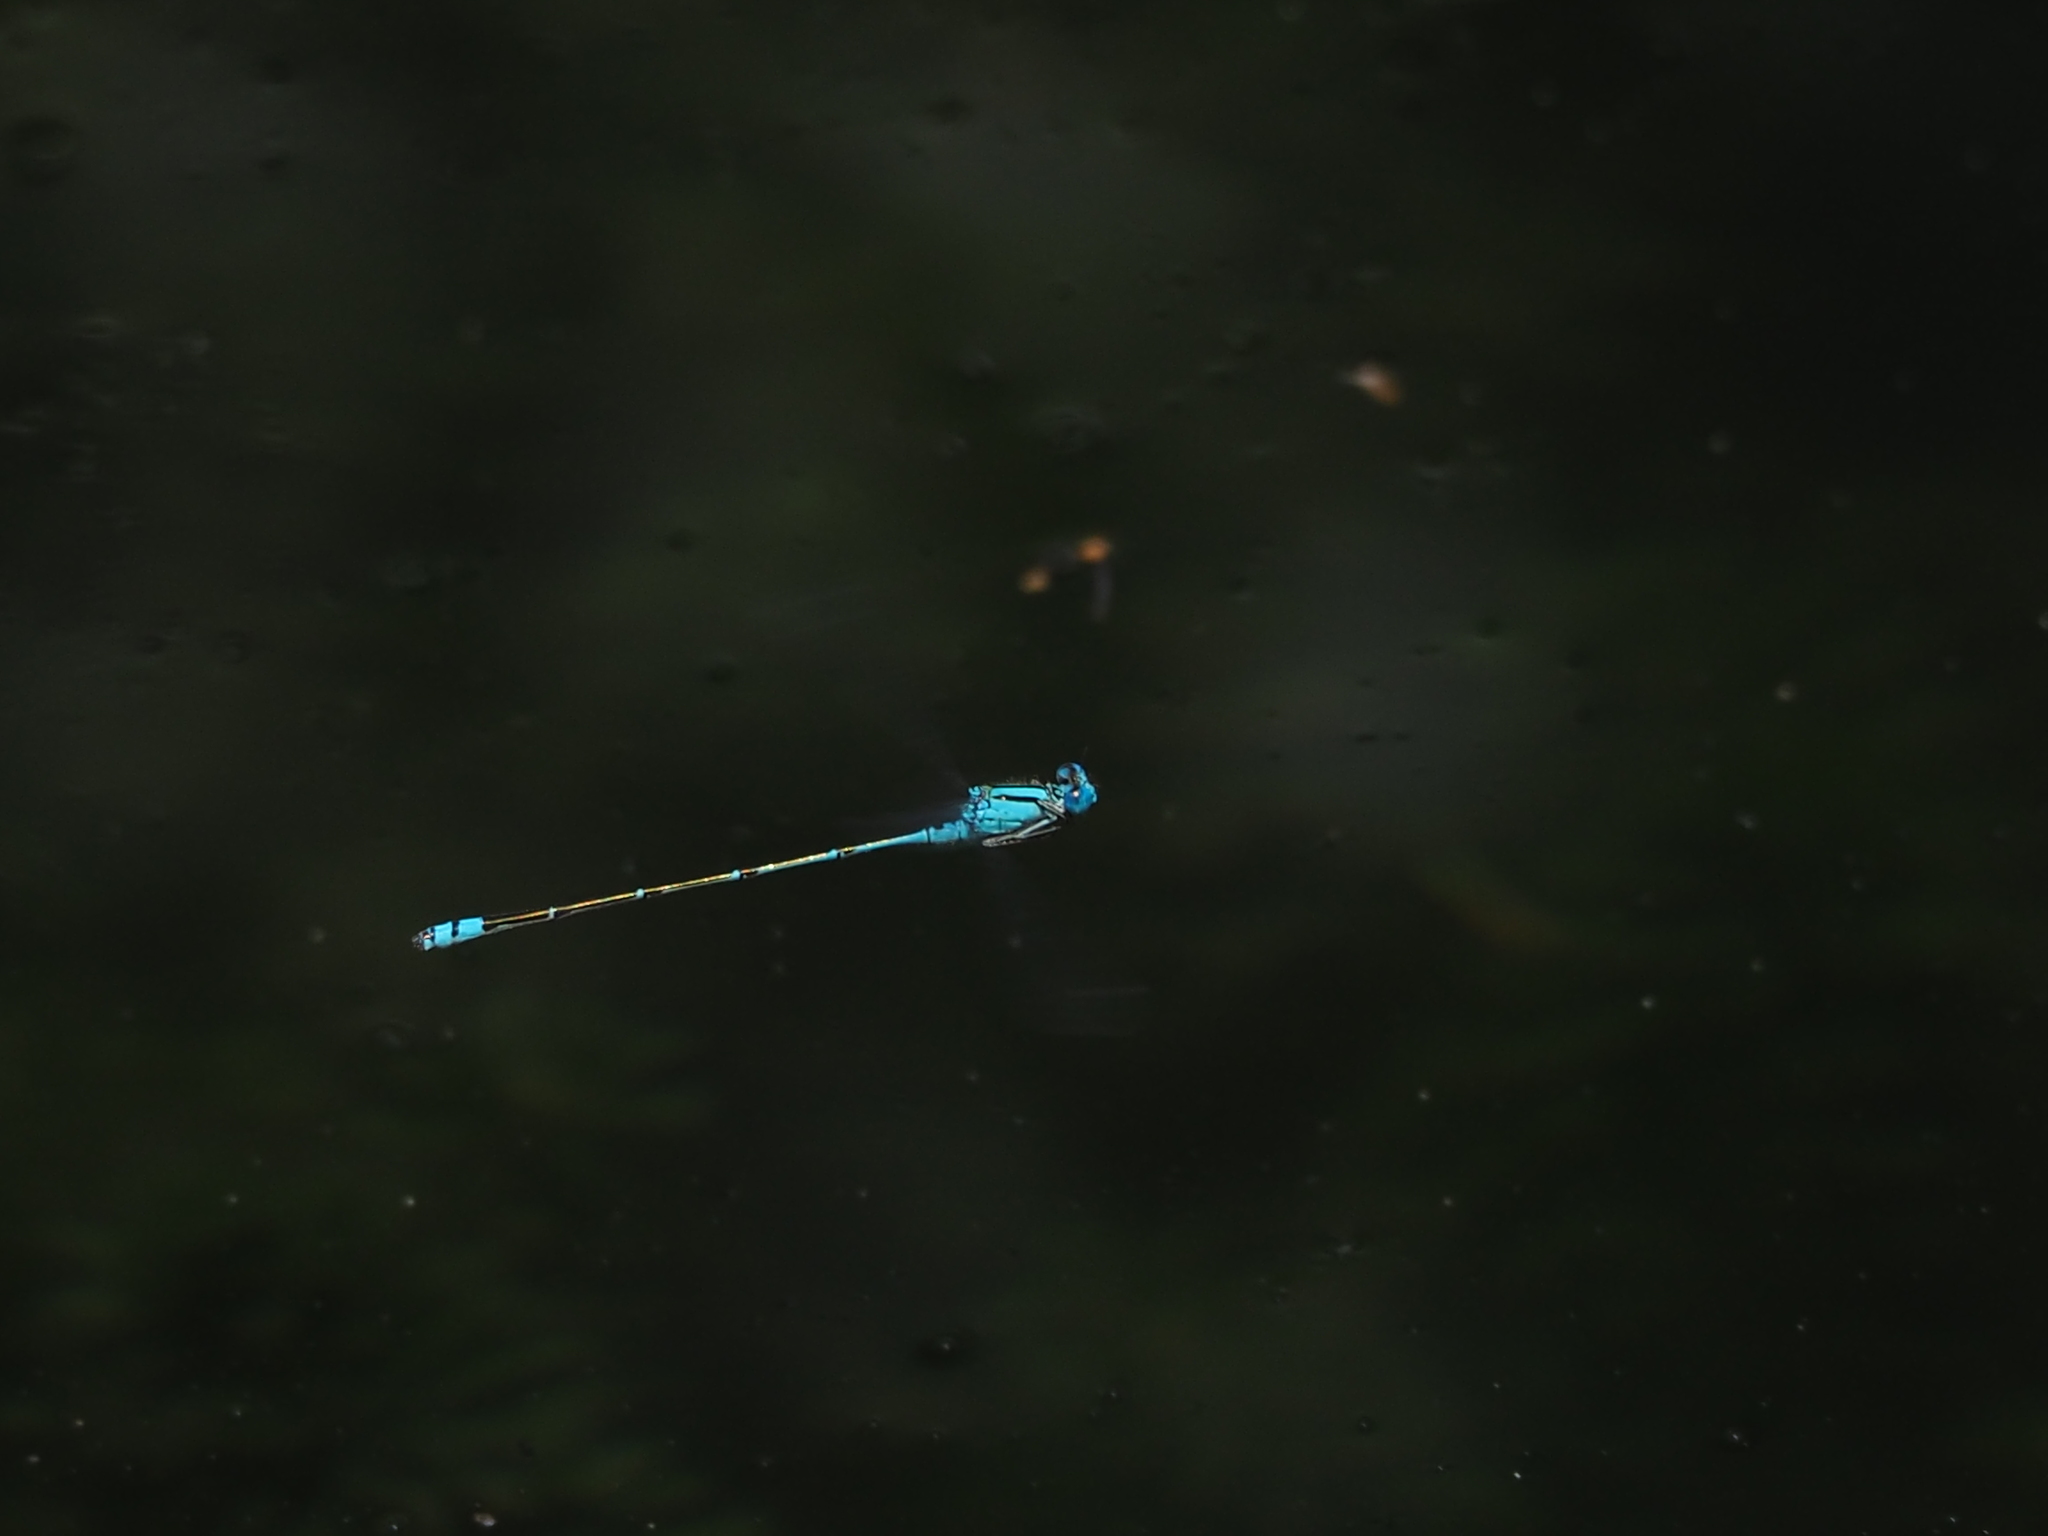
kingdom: Animalia
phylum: Arthropoda
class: Insecta
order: Odonata
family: Coenagrionidae
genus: Pseudagrion
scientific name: Pseudagrion microcephalum
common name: Blue riverdamsel
